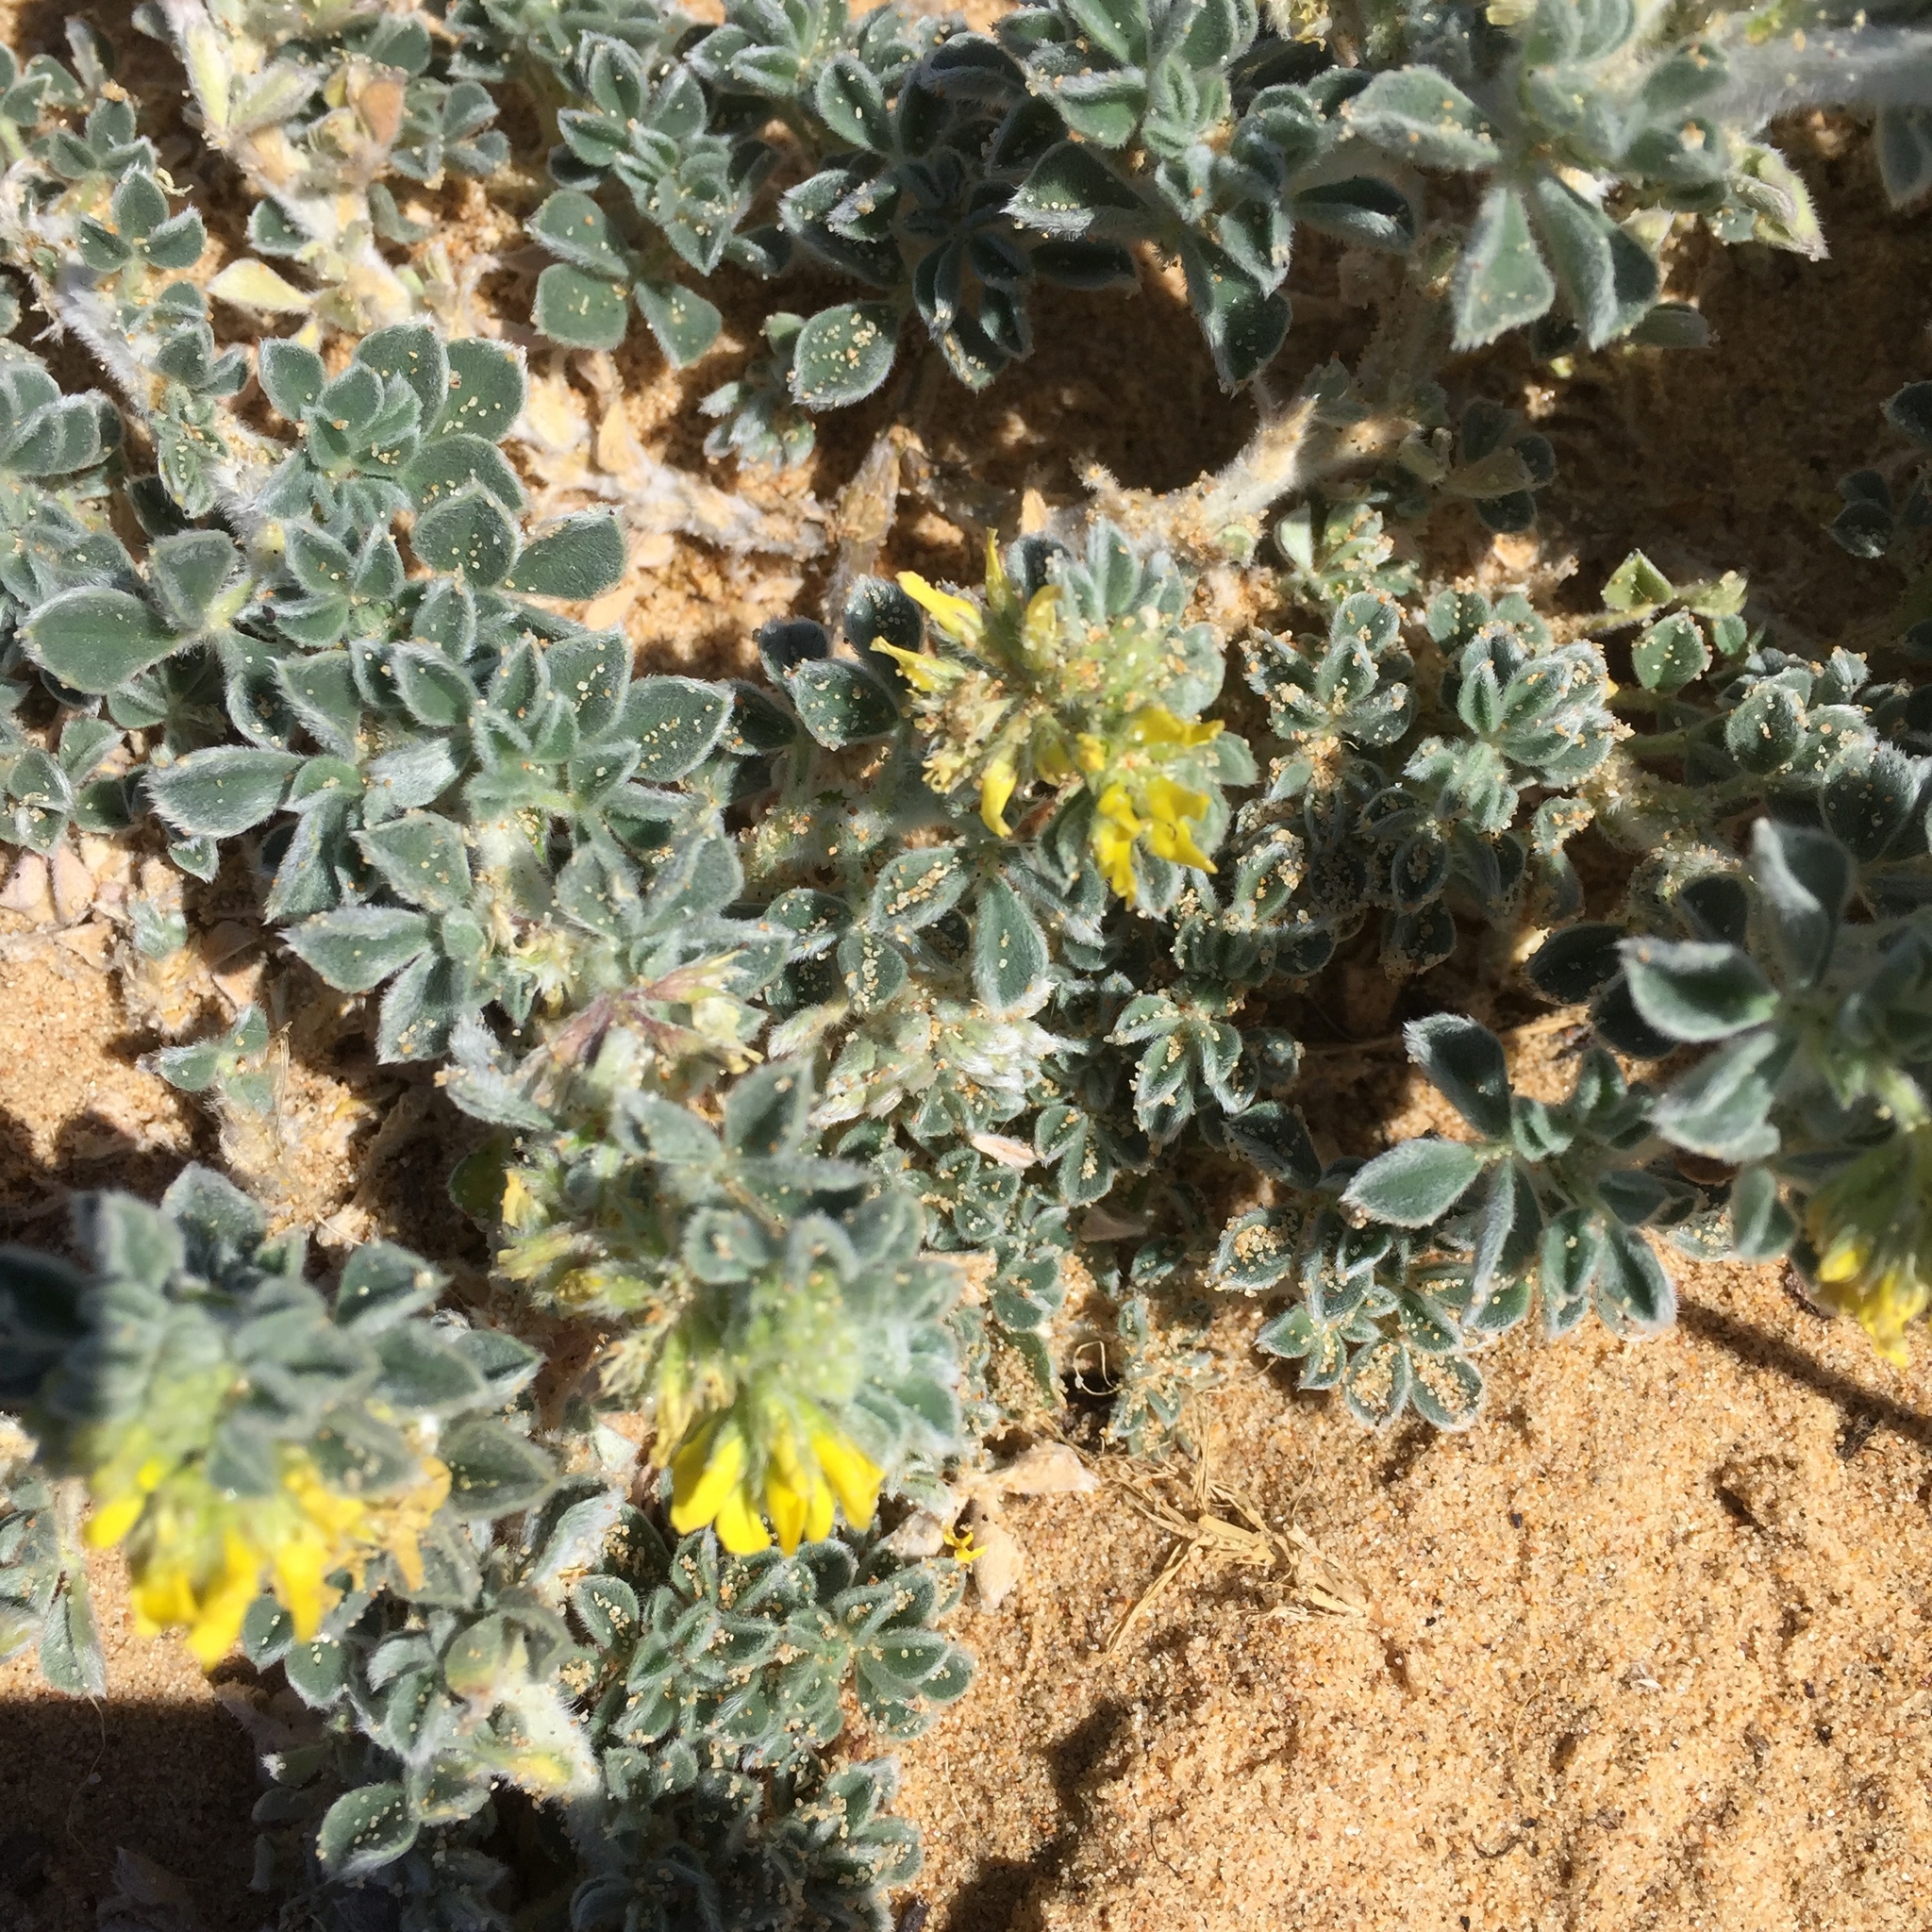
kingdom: Plantae
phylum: Tracheophyta
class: Magnoliopsida
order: Fabales
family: Fabaceae
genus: Medicago
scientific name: Medicago marina
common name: Sea medick
